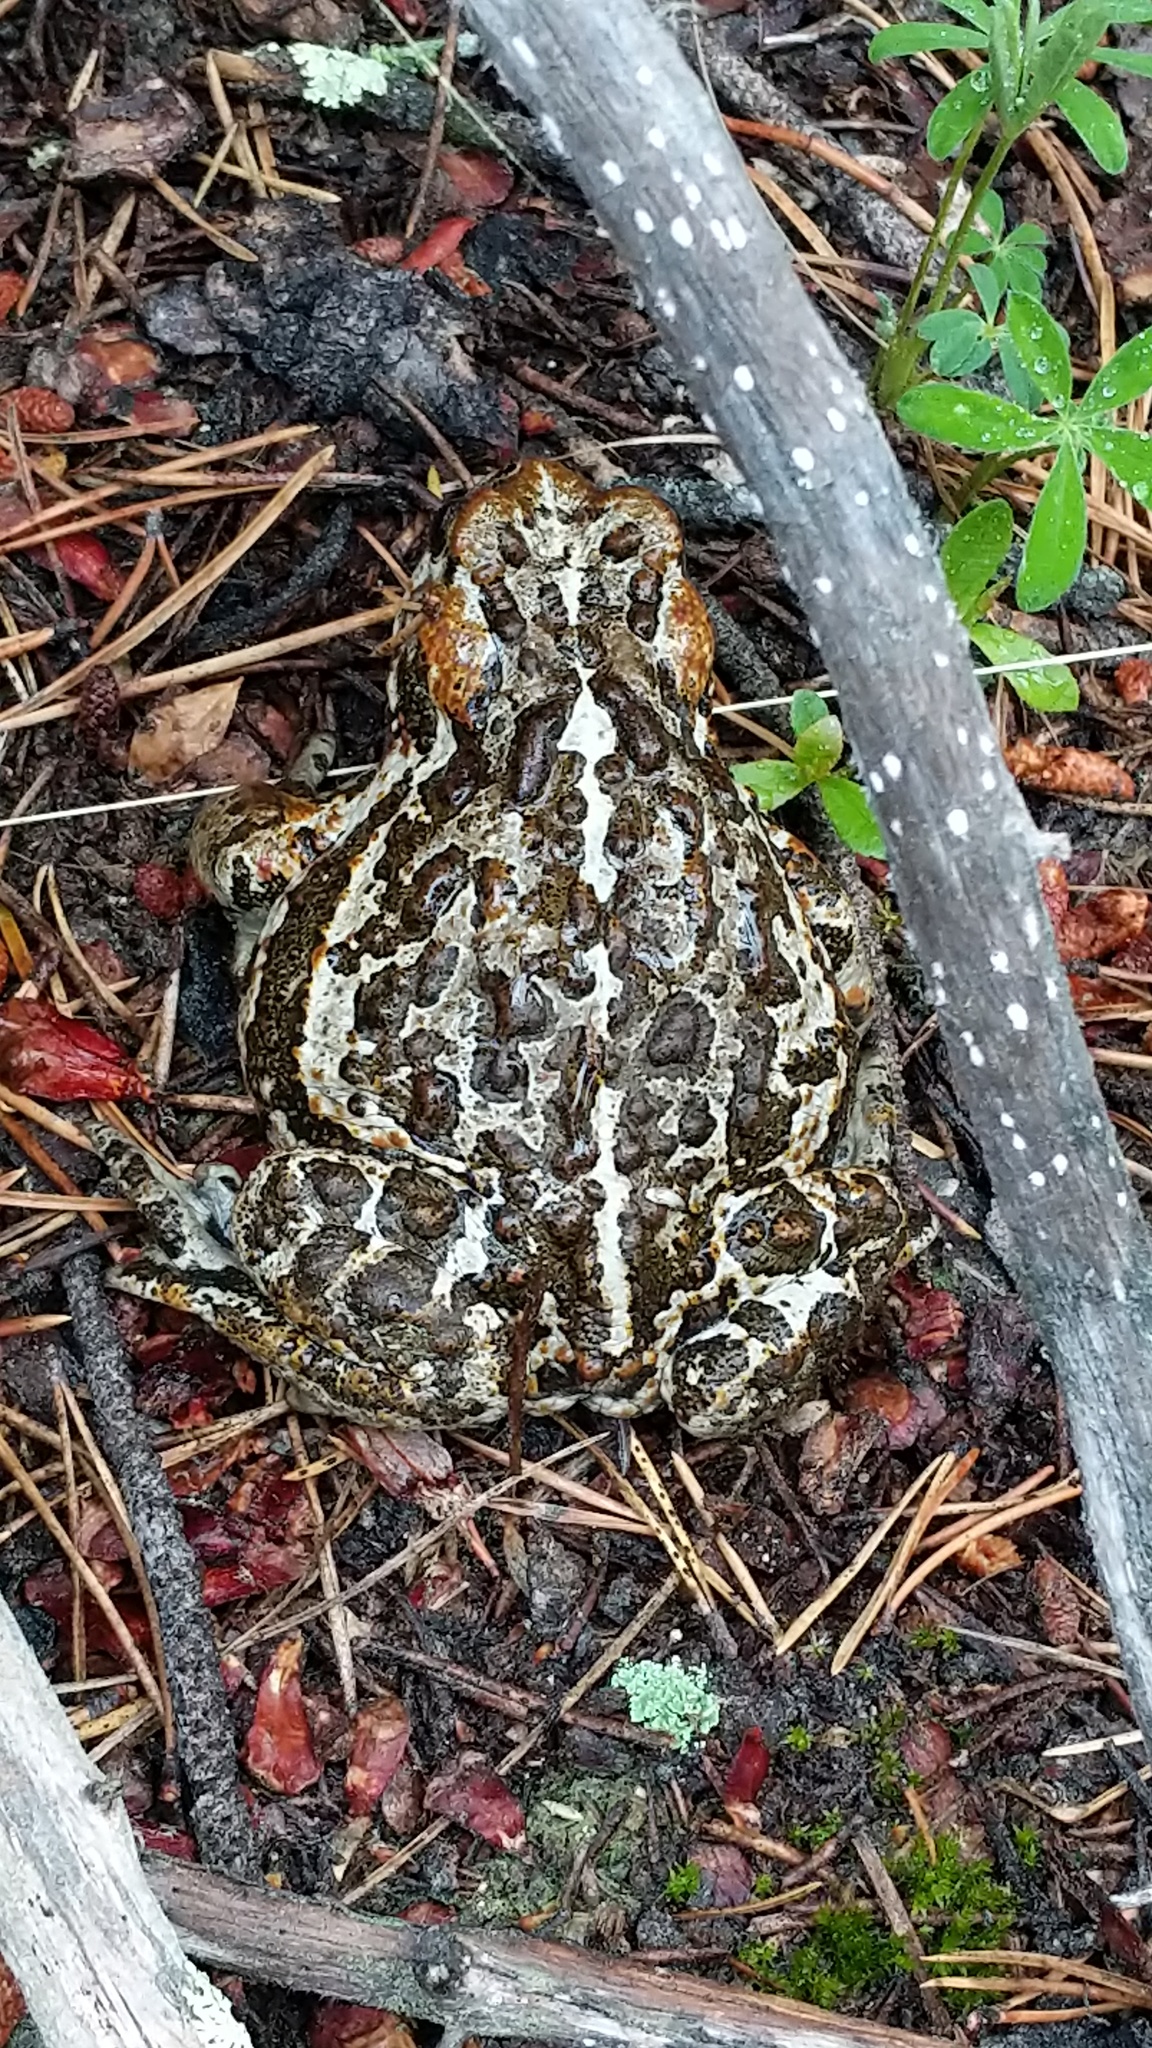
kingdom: Animalia
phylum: Chordata
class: Amphibia
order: Anura
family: Bufonidae
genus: Anaxyrus
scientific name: Anaxyrus boreas
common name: Western toad
